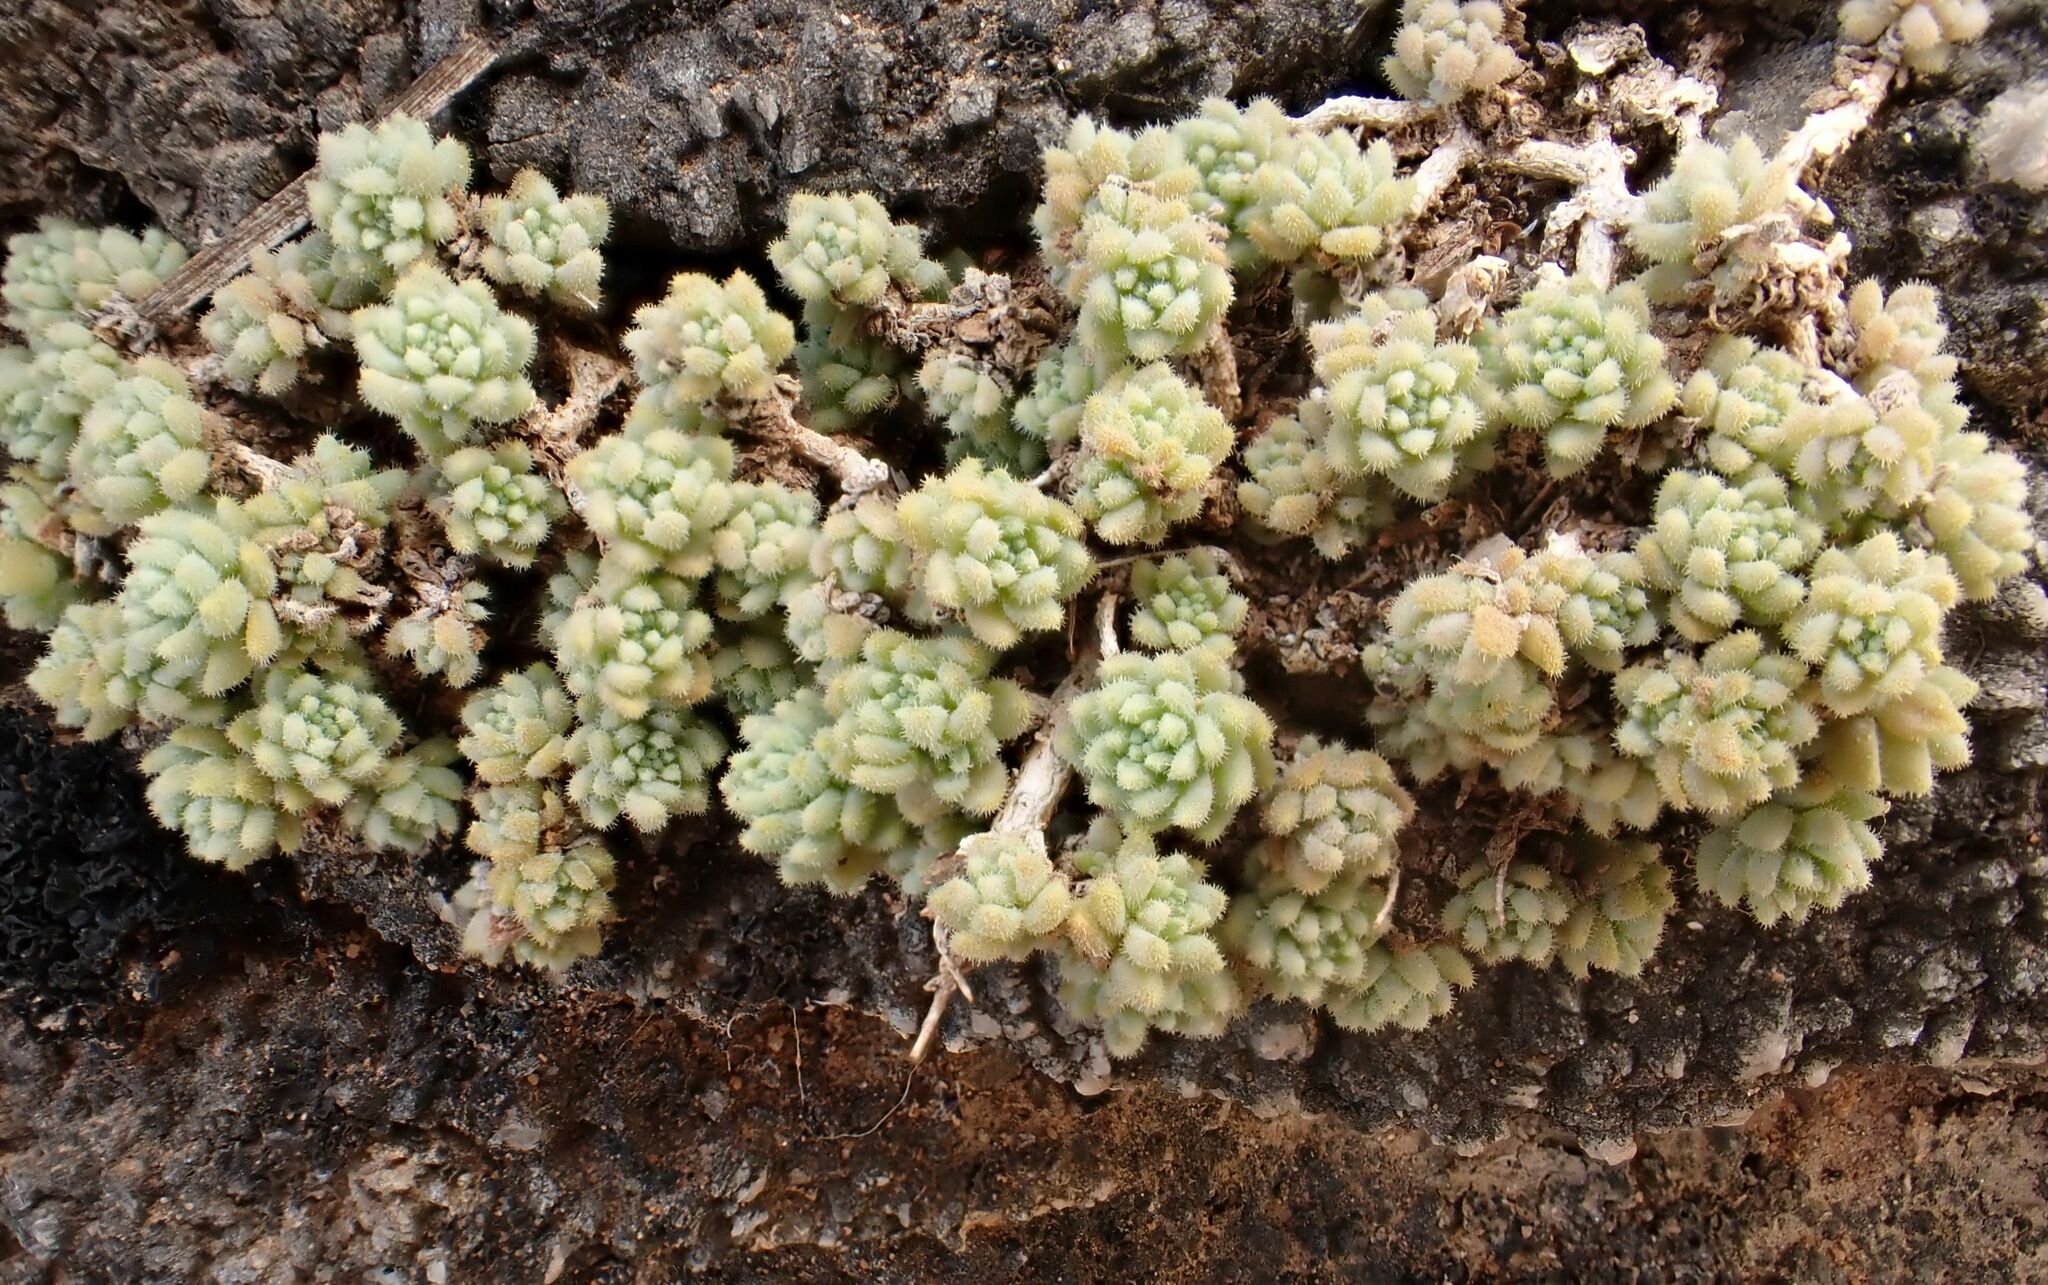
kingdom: Plantae
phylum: Tracheophyta
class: Magnoliopsida
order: Saxifragales
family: Crassulaceae
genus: Sedum
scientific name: Sedum dasyphyllum
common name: Thick-leaf stonecrop
